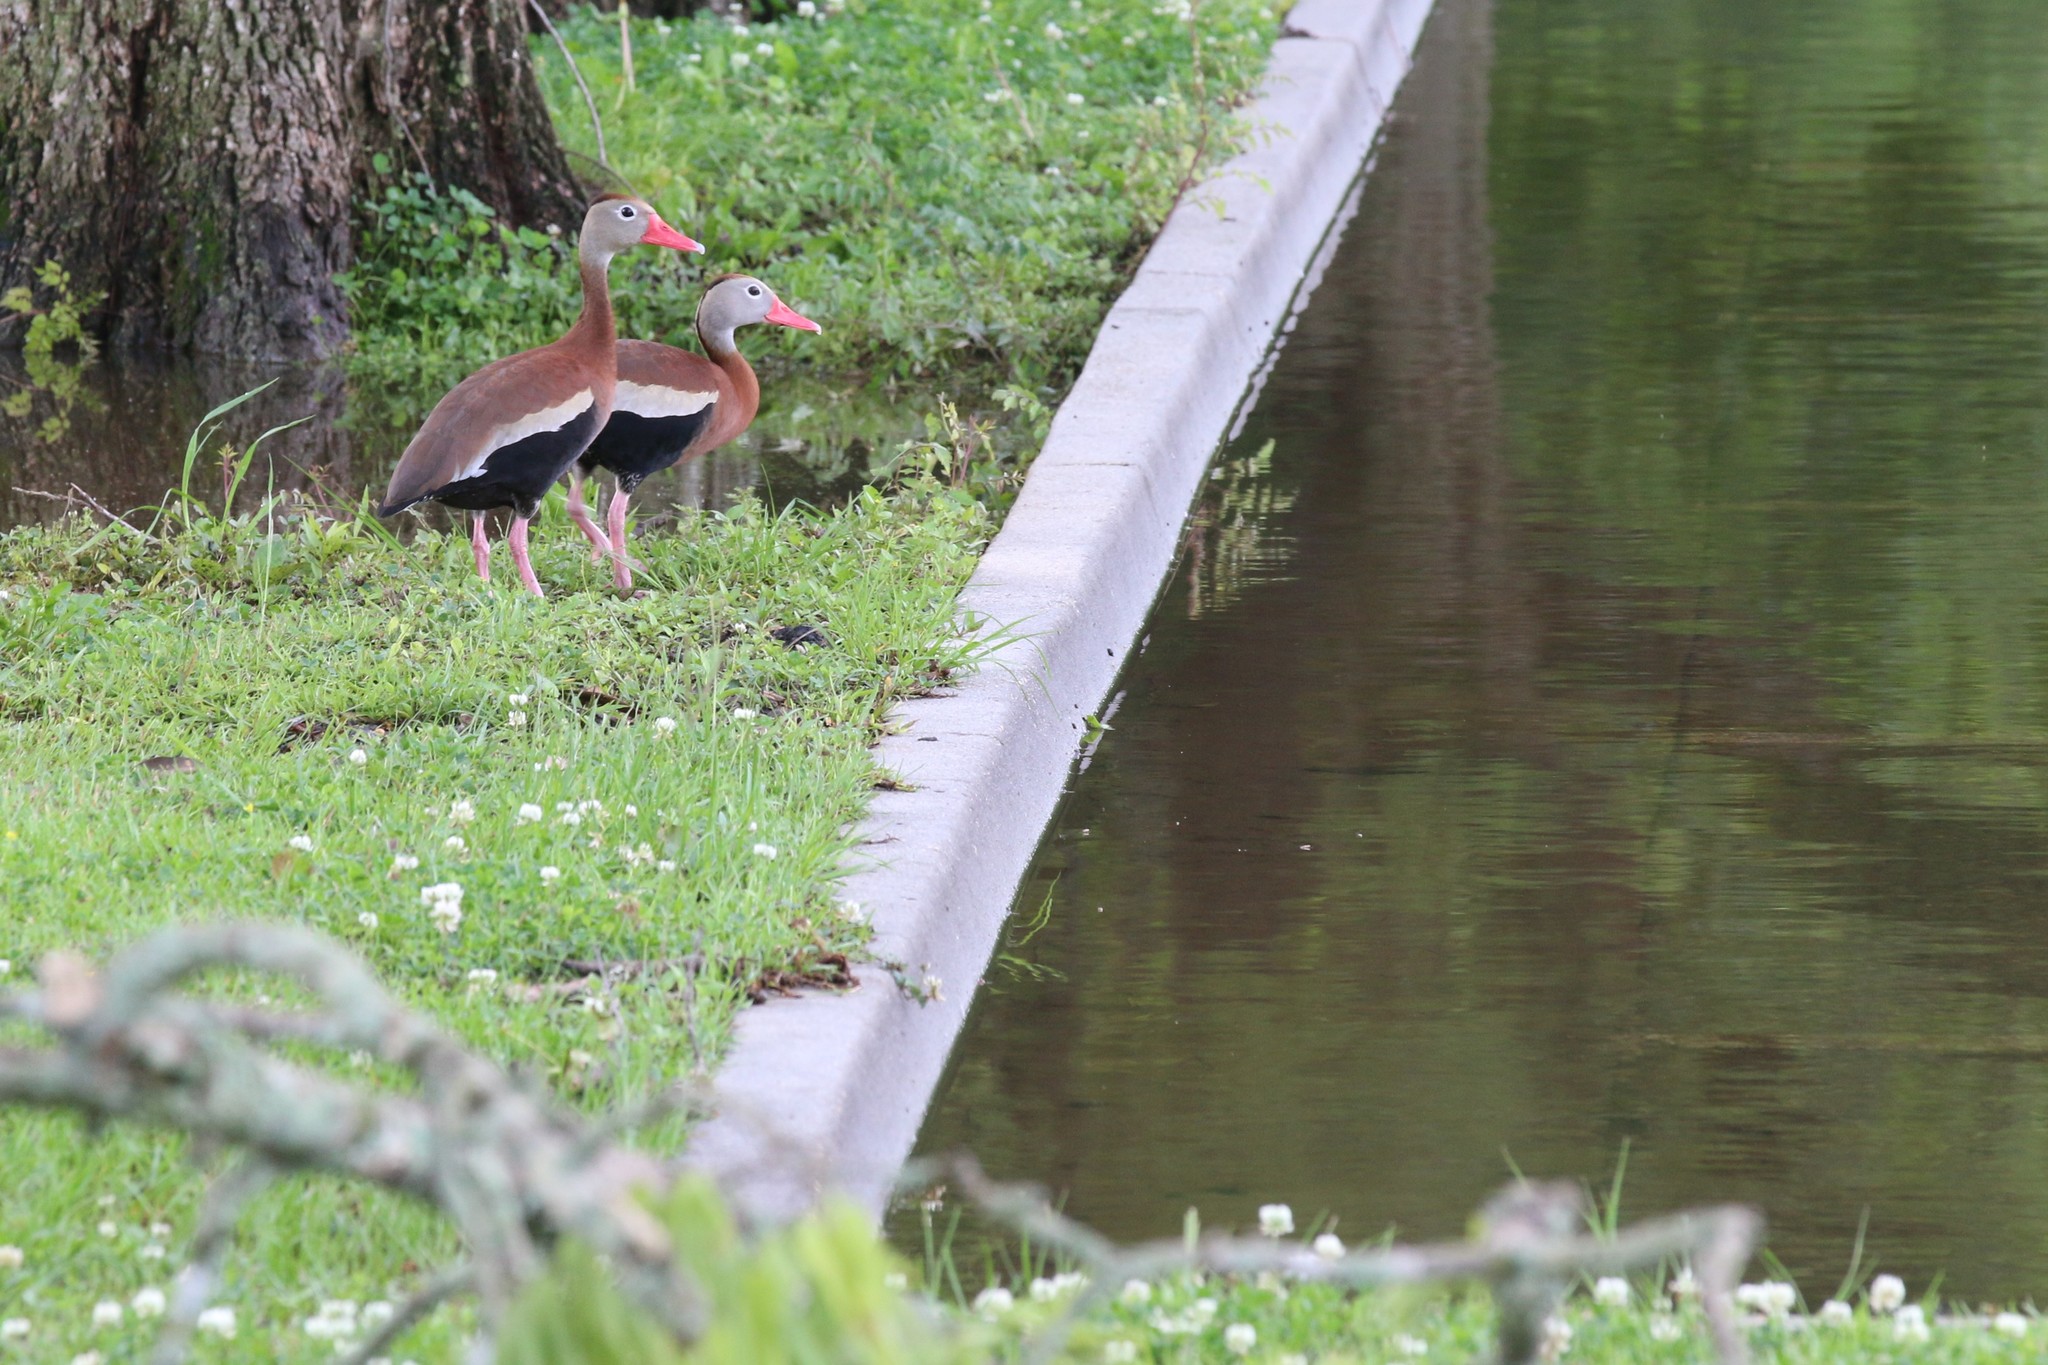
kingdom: Animalia
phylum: Chordata
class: Aves
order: Anseriformes
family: Anatidae
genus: Dendrocygna
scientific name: Dendrocygna autumnalis
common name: Black-bellied whistling duck
